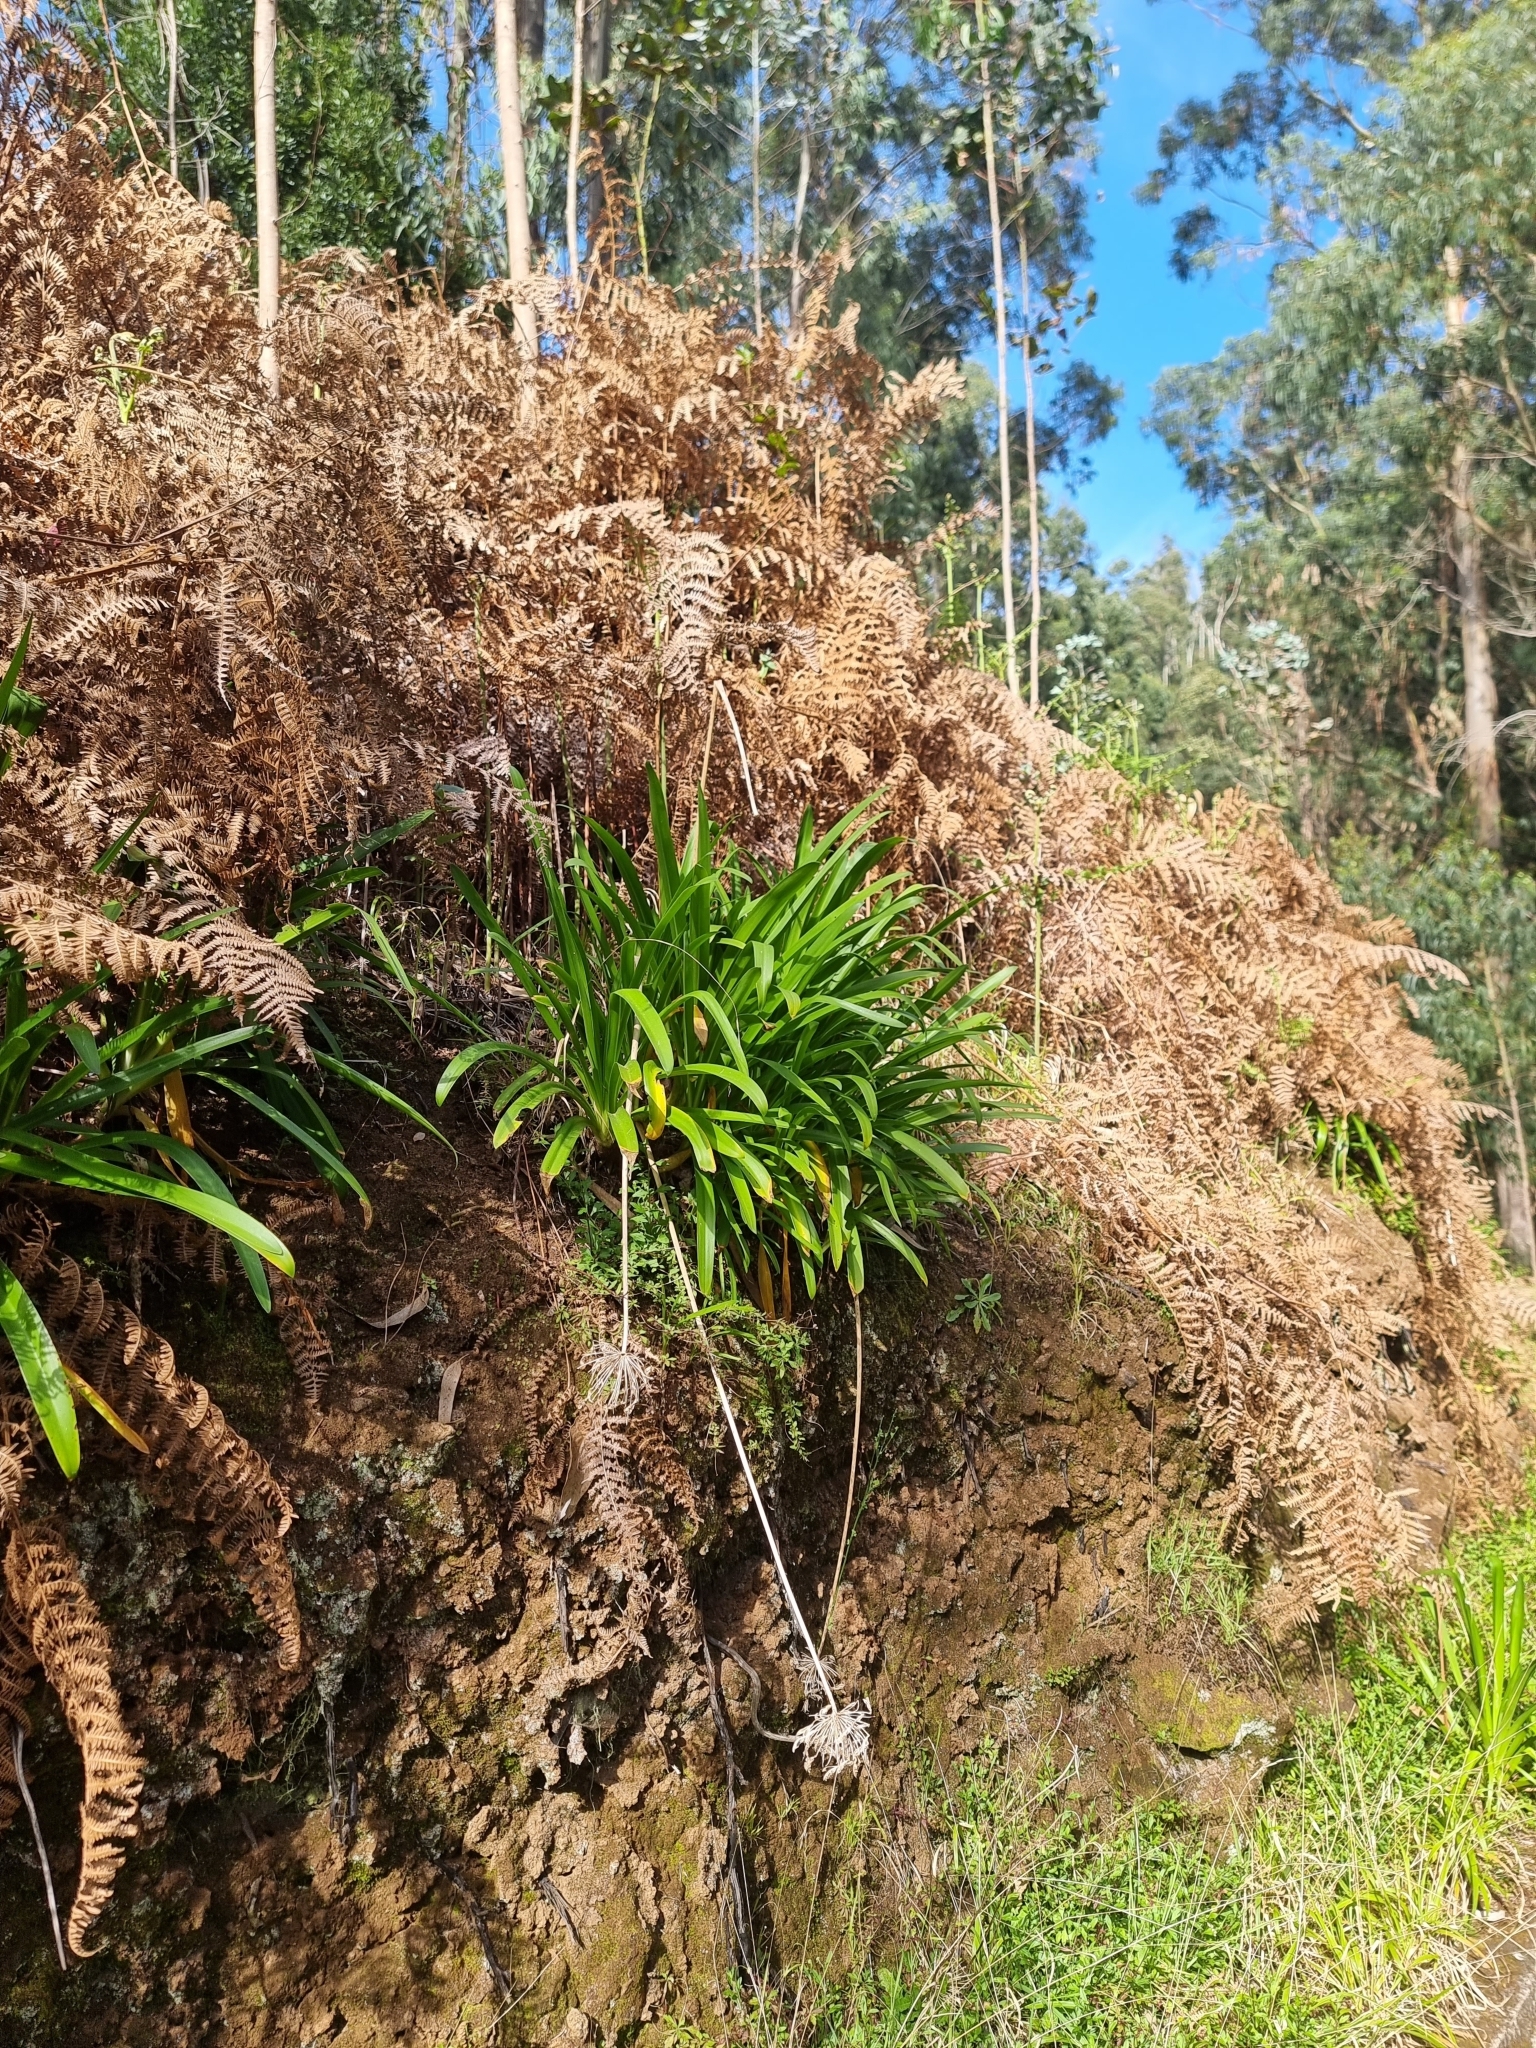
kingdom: Plantae
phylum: Tracheophyta
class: Liliopsida
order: Asparagales
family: Amaryllidaceae
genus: Agapanthus
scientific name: Agapanthus praecox
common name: African-lily
